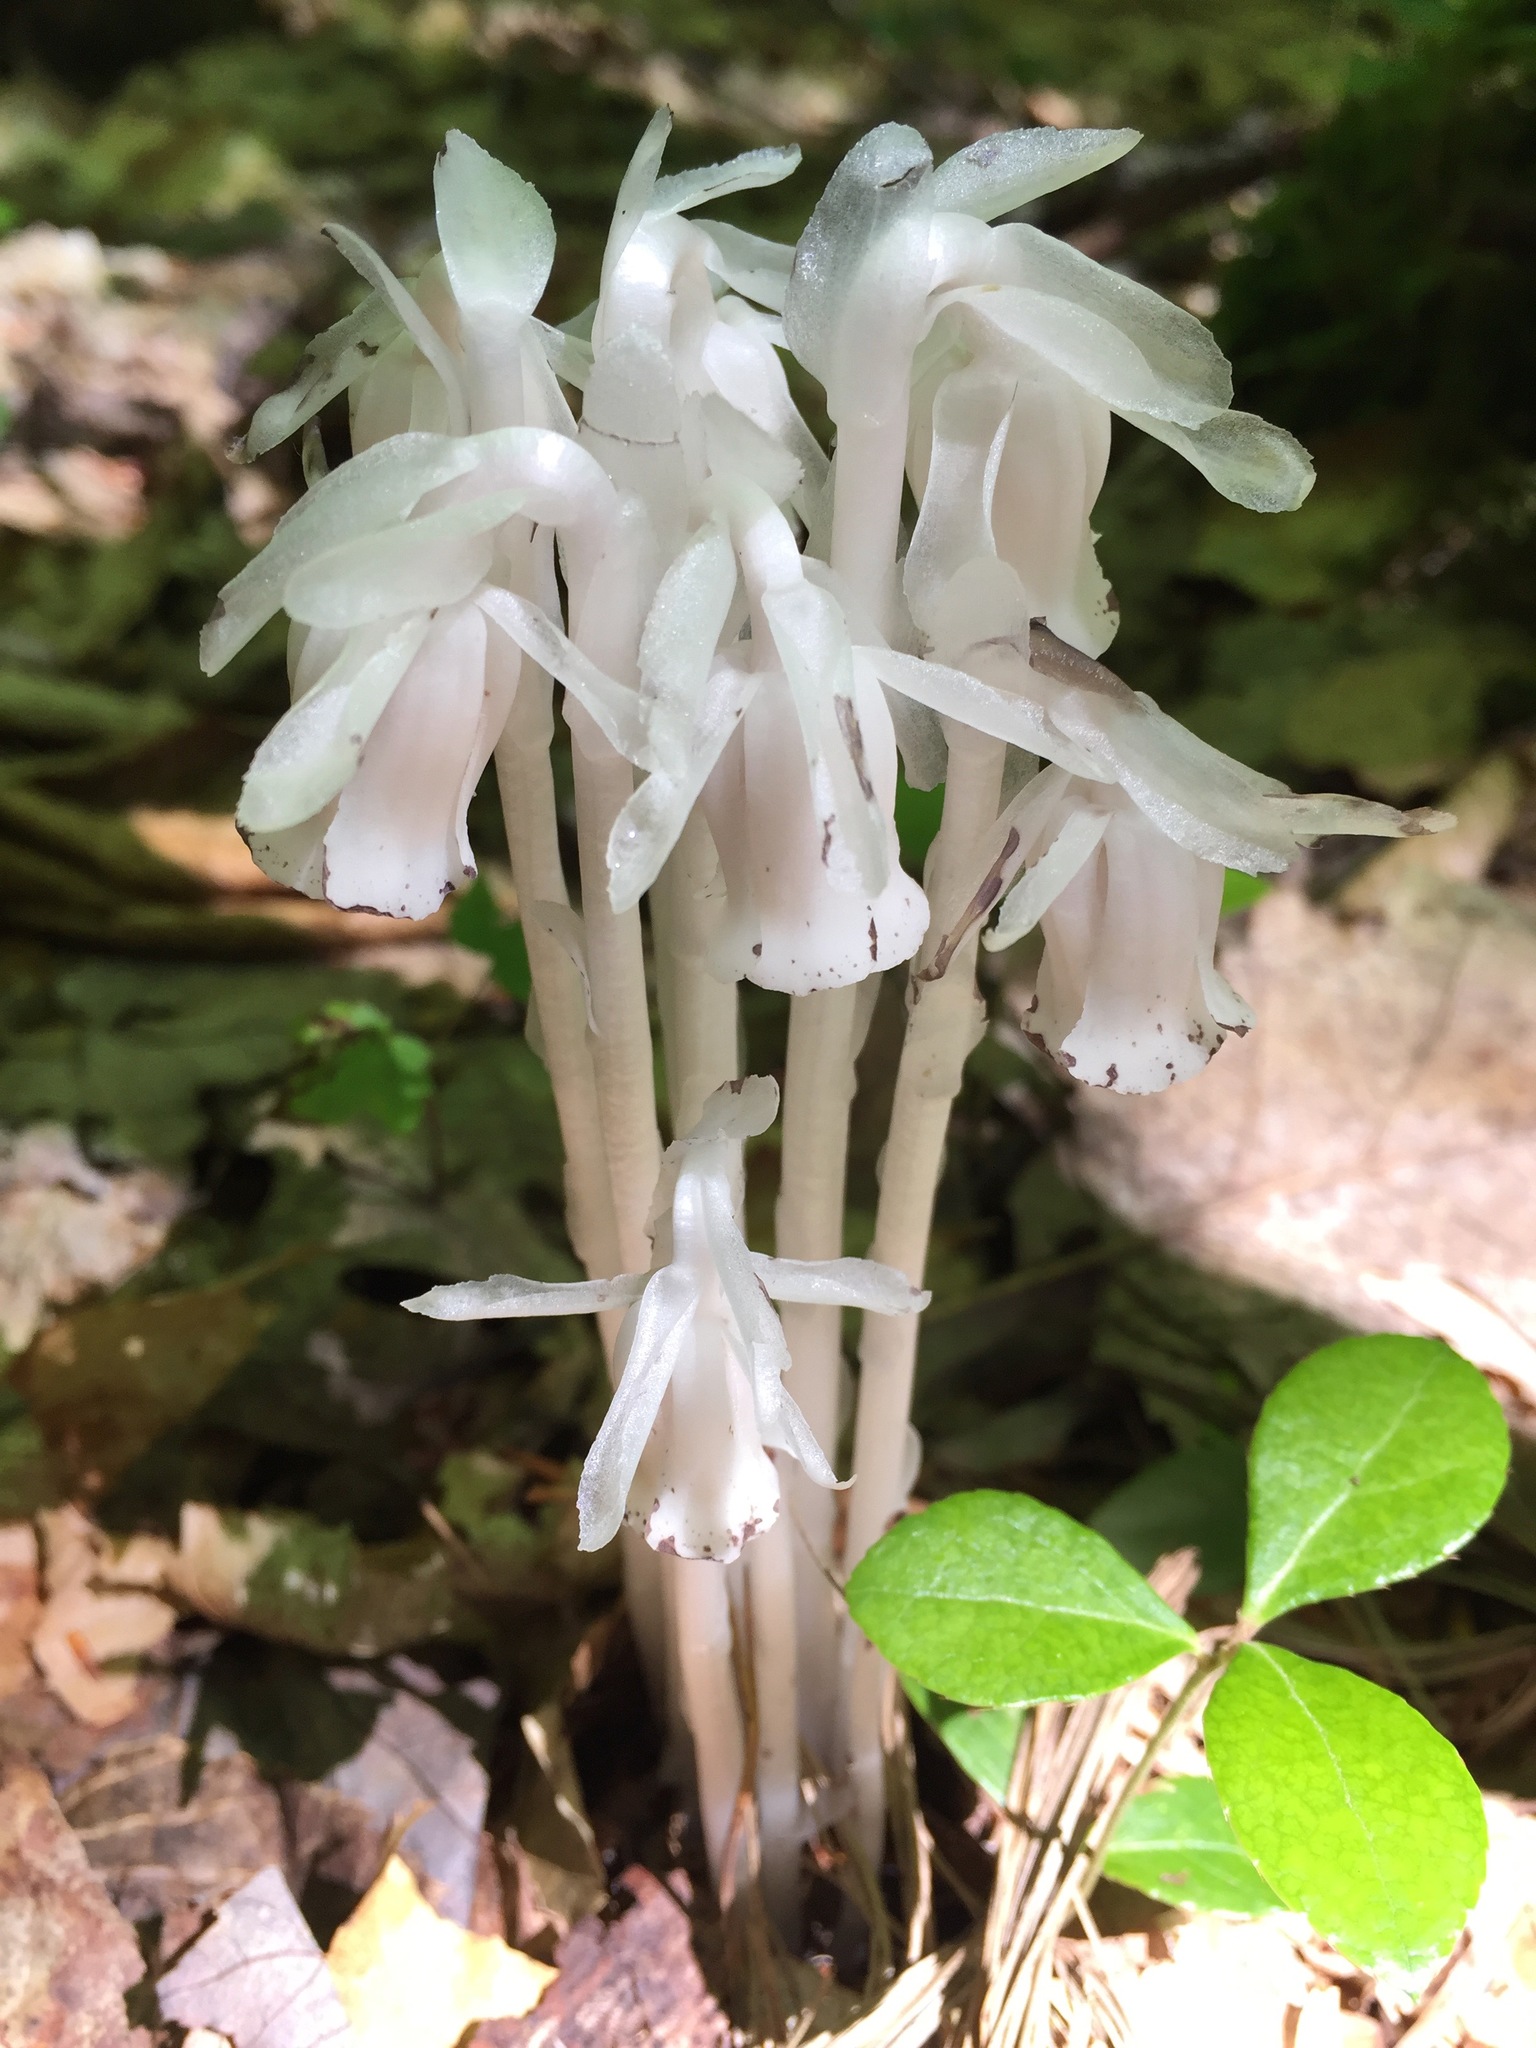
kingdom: Plantae
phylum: Tracheophyta
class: Magnoliopsida
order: Ericales
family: Ericaceae
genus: Monotropa
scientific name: Monotropa uniflora
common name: Convulsion root
